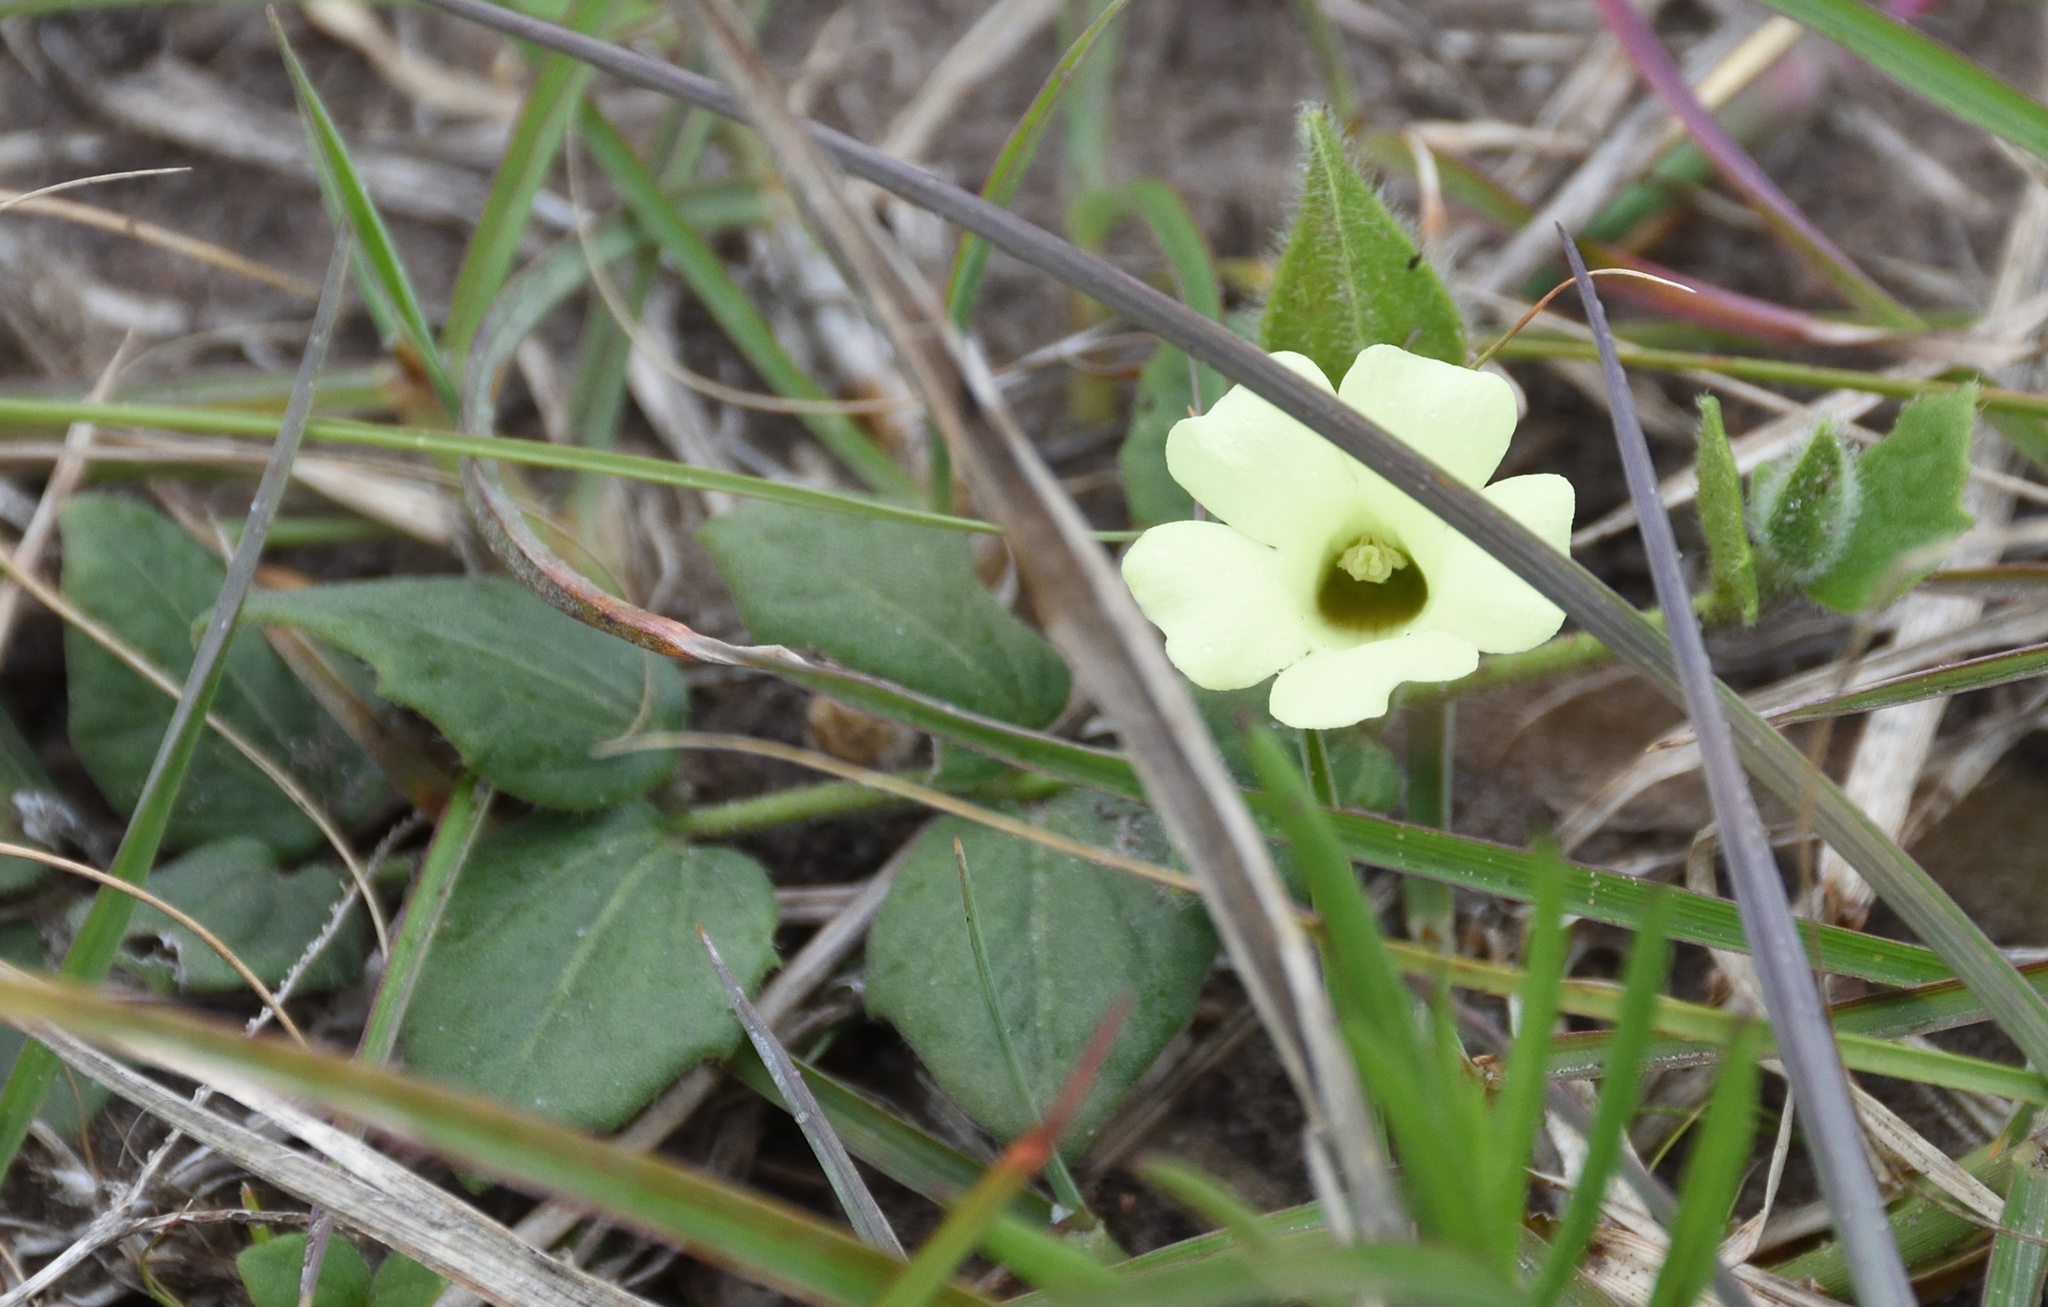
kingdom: Plantae
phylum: Tracheophyta
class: Magnoliopsida
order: Lamiales
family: Acanthaceae
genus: Thunbergia
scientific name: Thunbergia capensis
